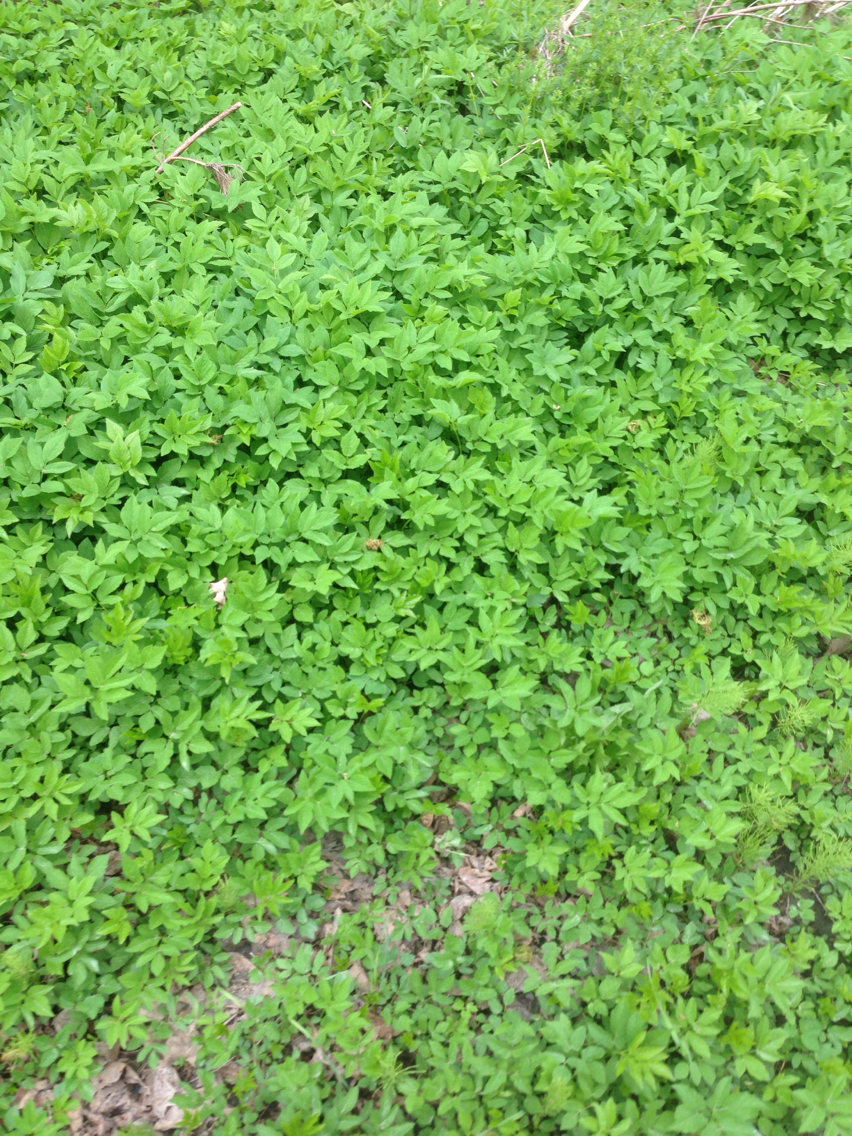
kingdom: Plantae
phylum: Tracheophyta
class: Magnoliopsida
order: Apiales
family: Apiaceae
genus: Aegopodium
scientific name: Aegopodium podagraria
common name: Ground-elder
